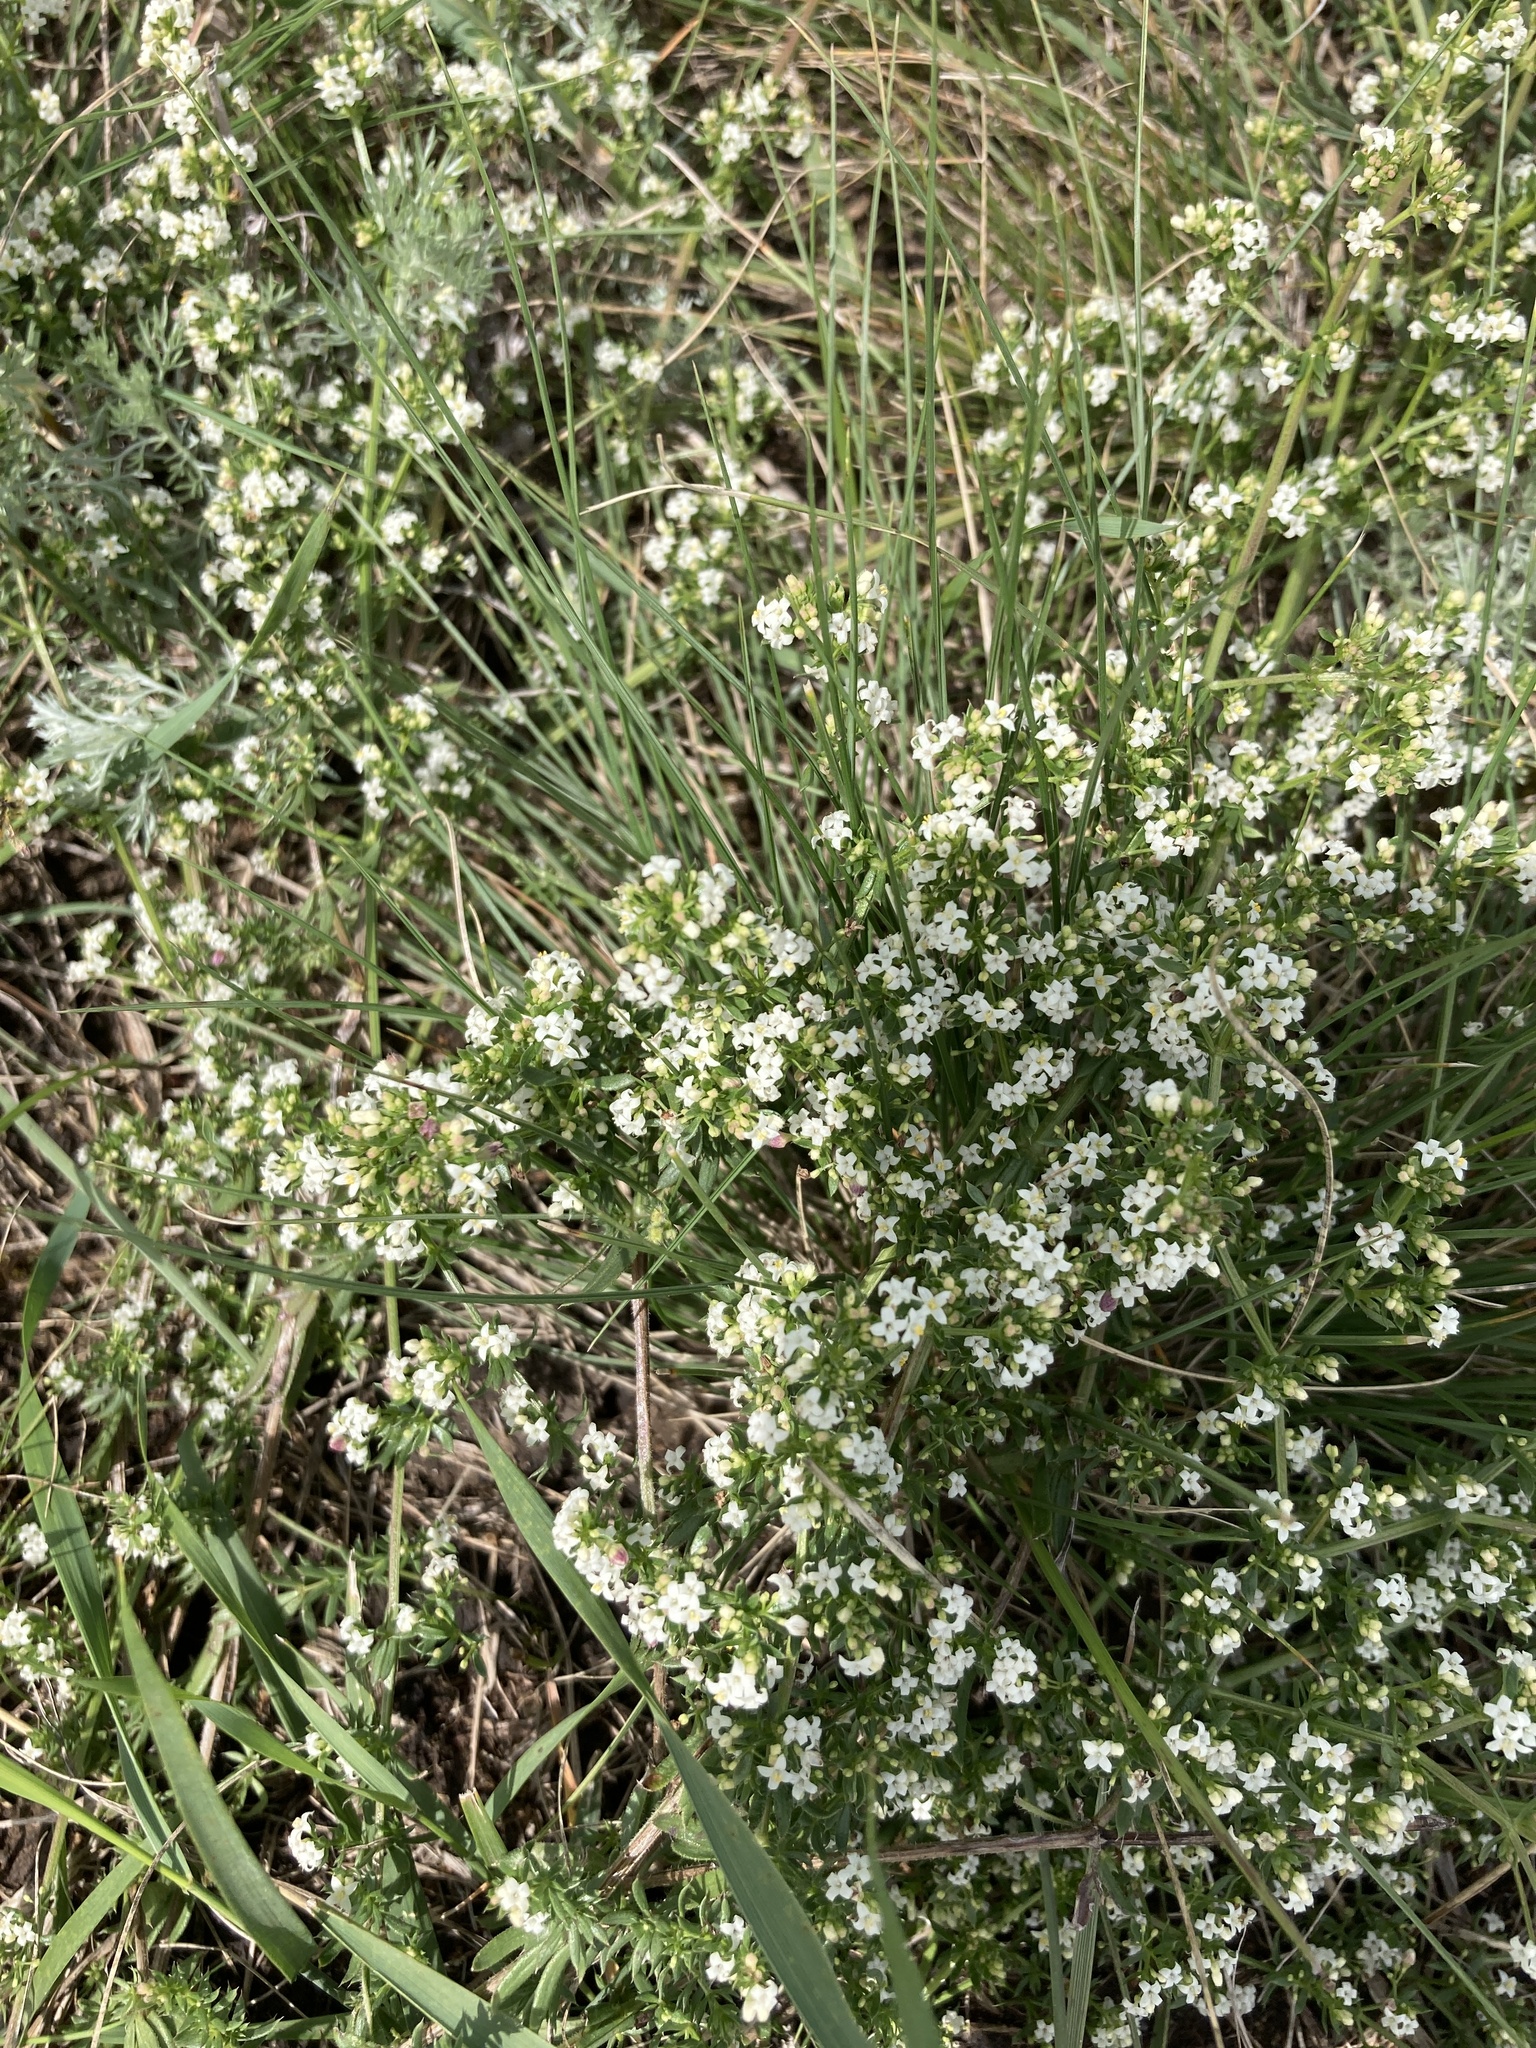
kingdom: Plantae
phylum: Tracheophyta
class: Magnoliopsida
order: Gentianales
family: Rubiaceae
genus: Galium
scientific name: Galium humifusum
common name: Spreading bedstraw
